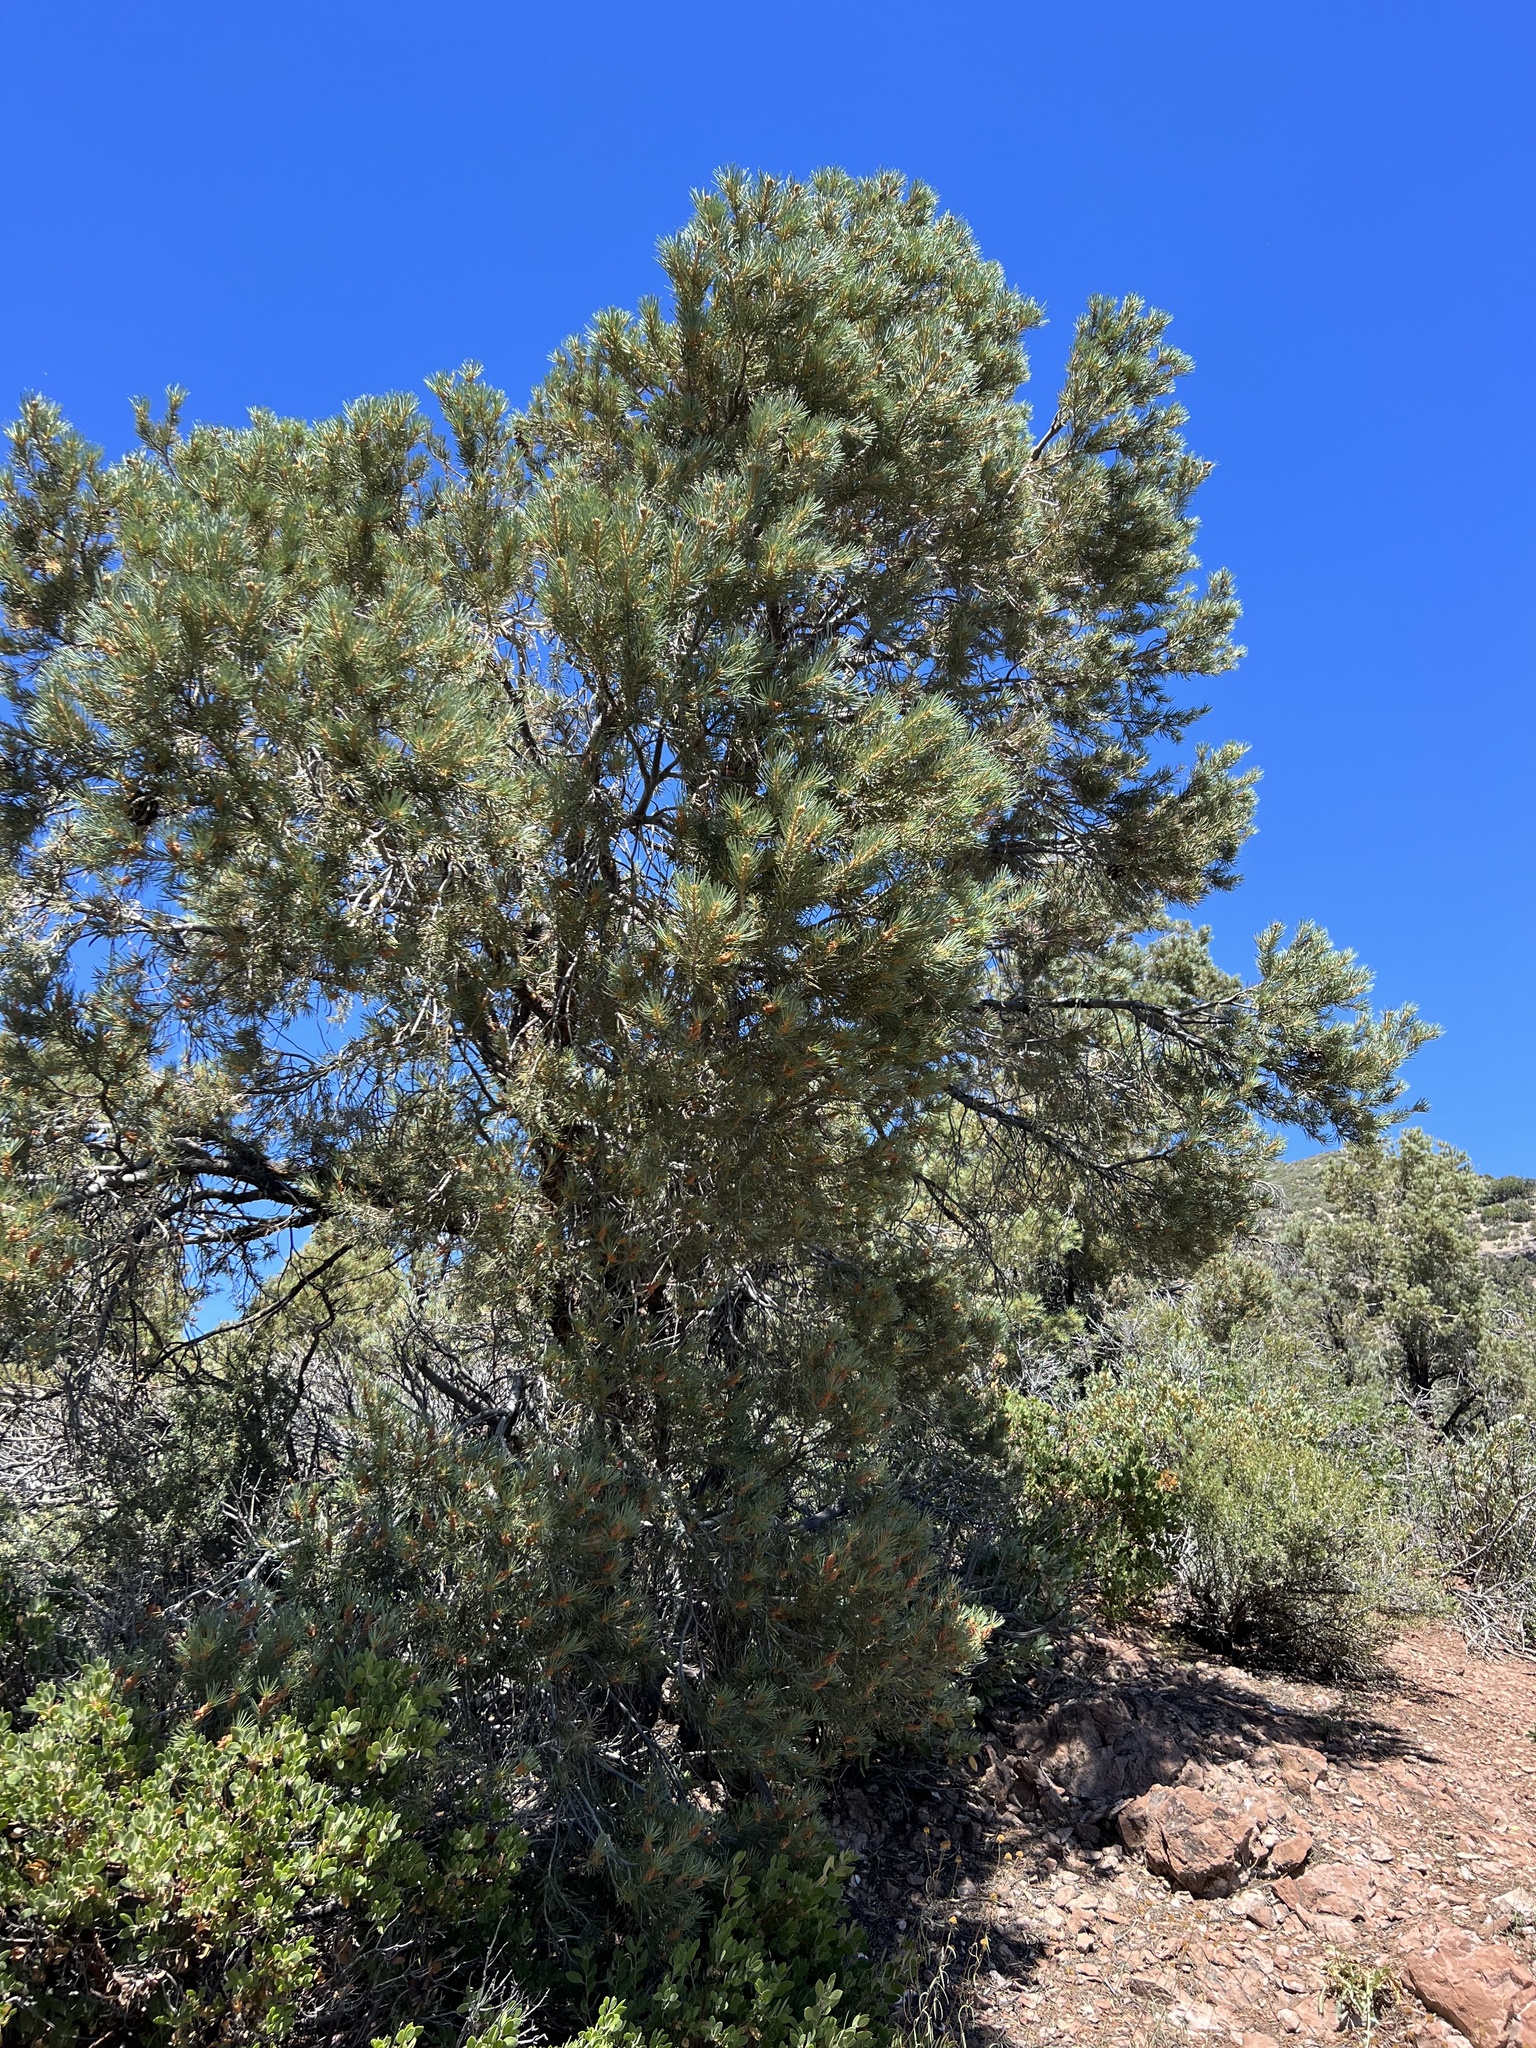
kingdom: Plantae
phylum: Tracheophyta
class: Pinopsida
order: Pinales
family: Pinaceae
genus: Pinus
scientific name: Pinus monophylla
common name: One-leaved nut pine
